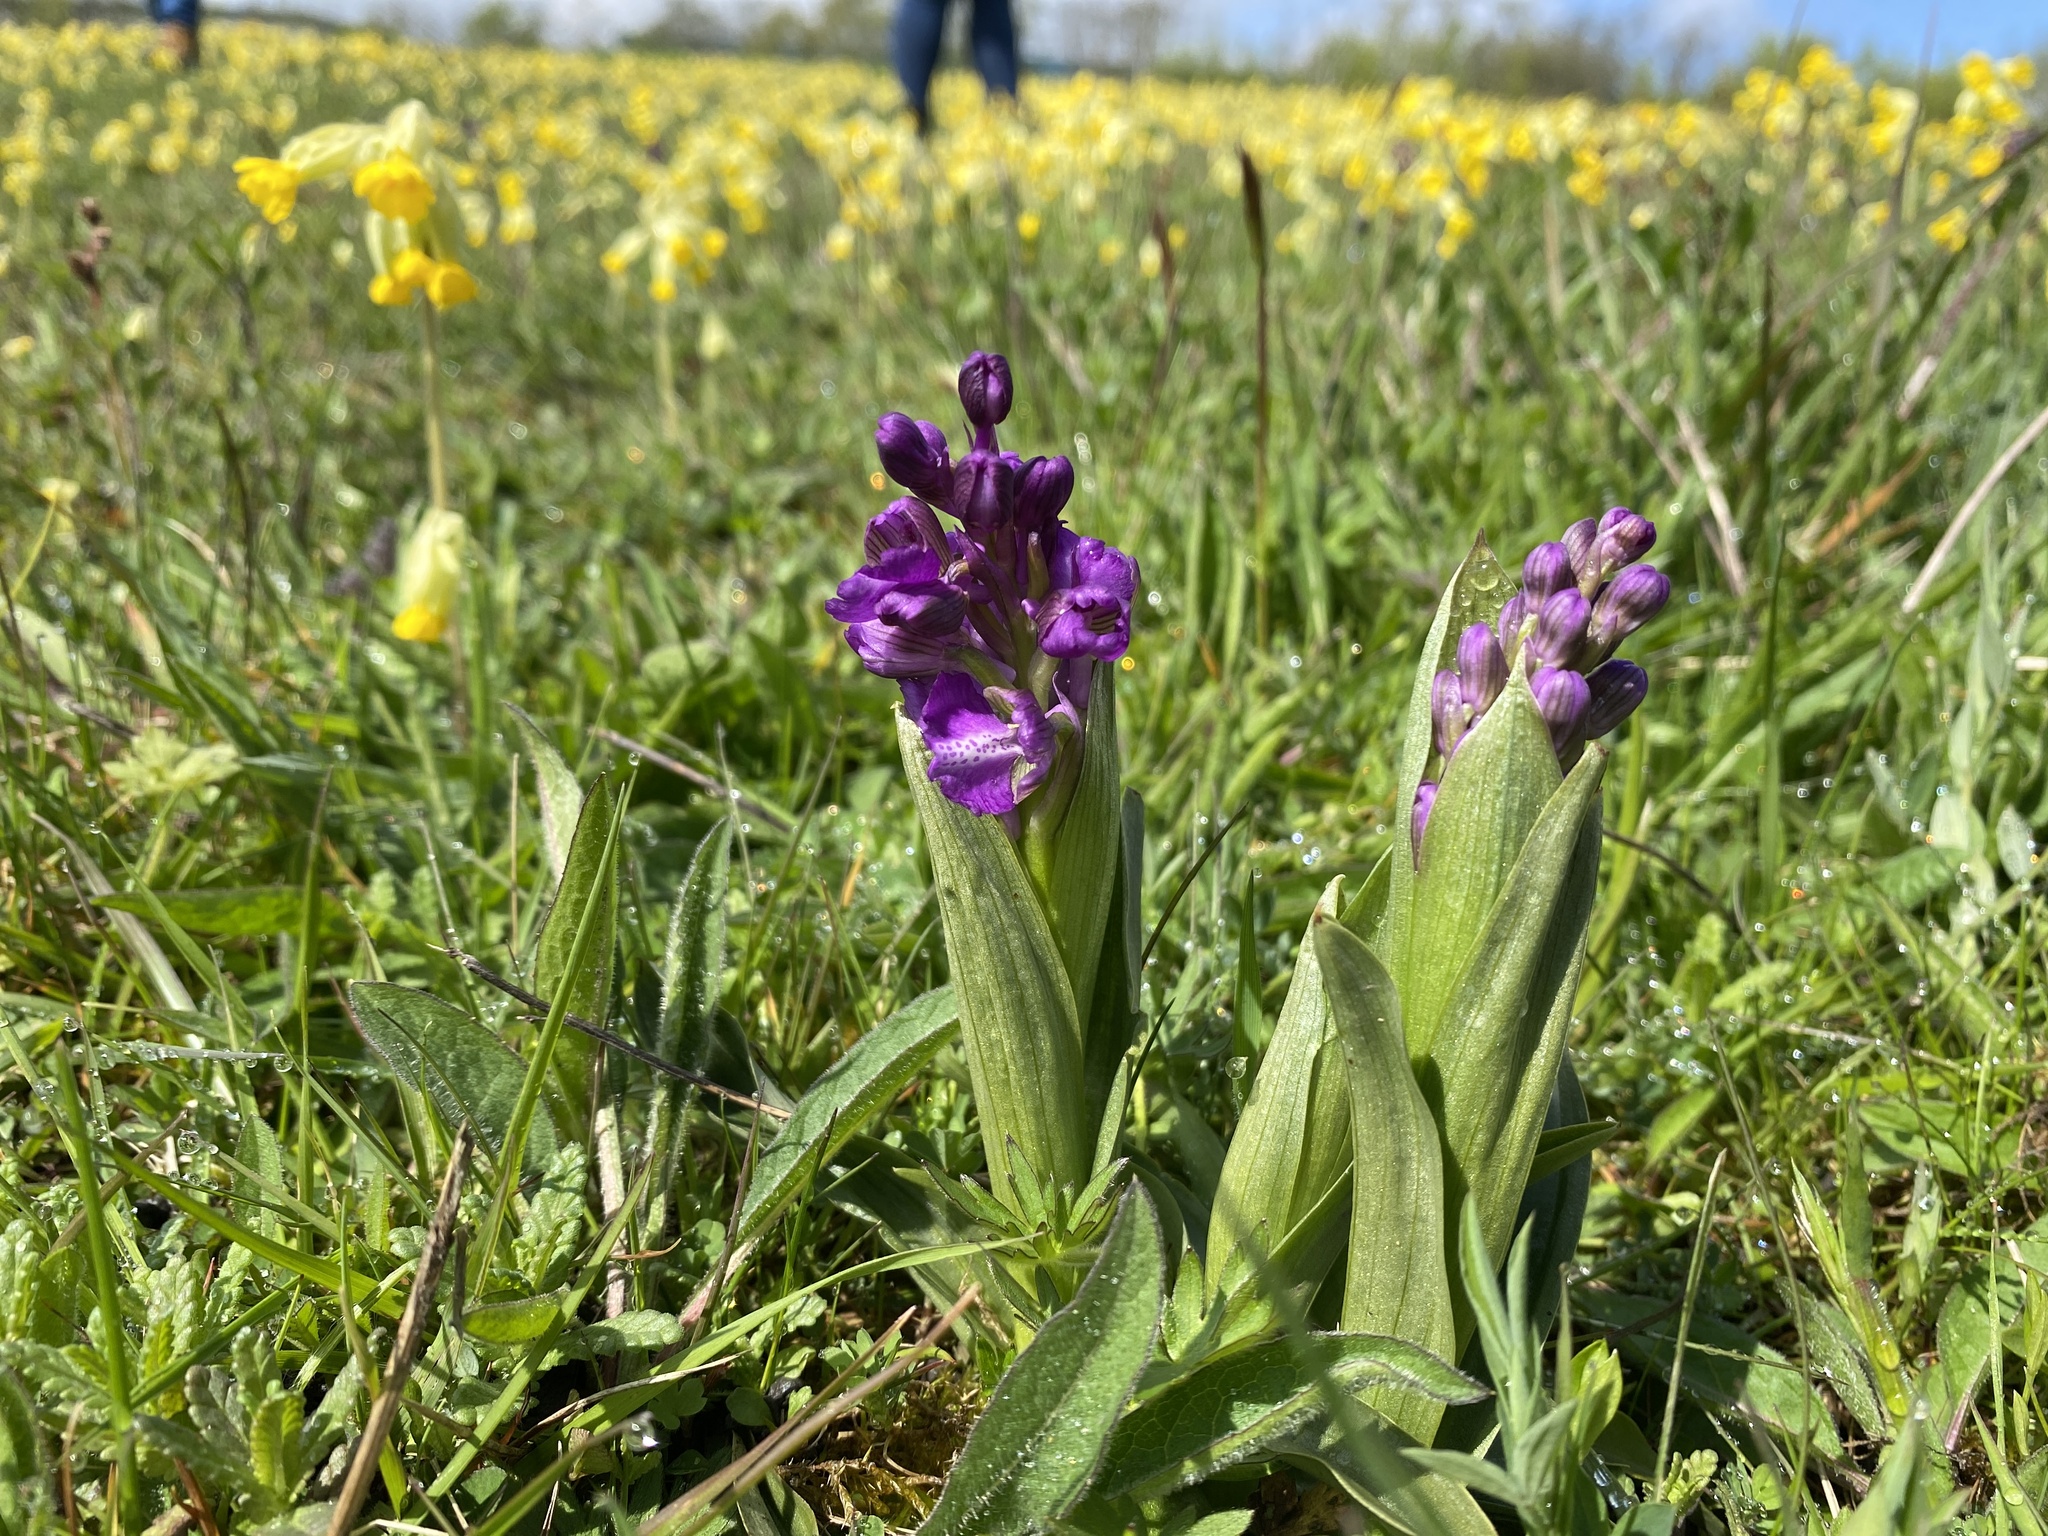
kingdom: Plantae
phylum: Tracheophyta
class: Liliopsida
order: Asparagales
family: Orchidaceae
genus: Anacamptis
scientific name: Anacamptis morio
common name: Green-winged orchid
